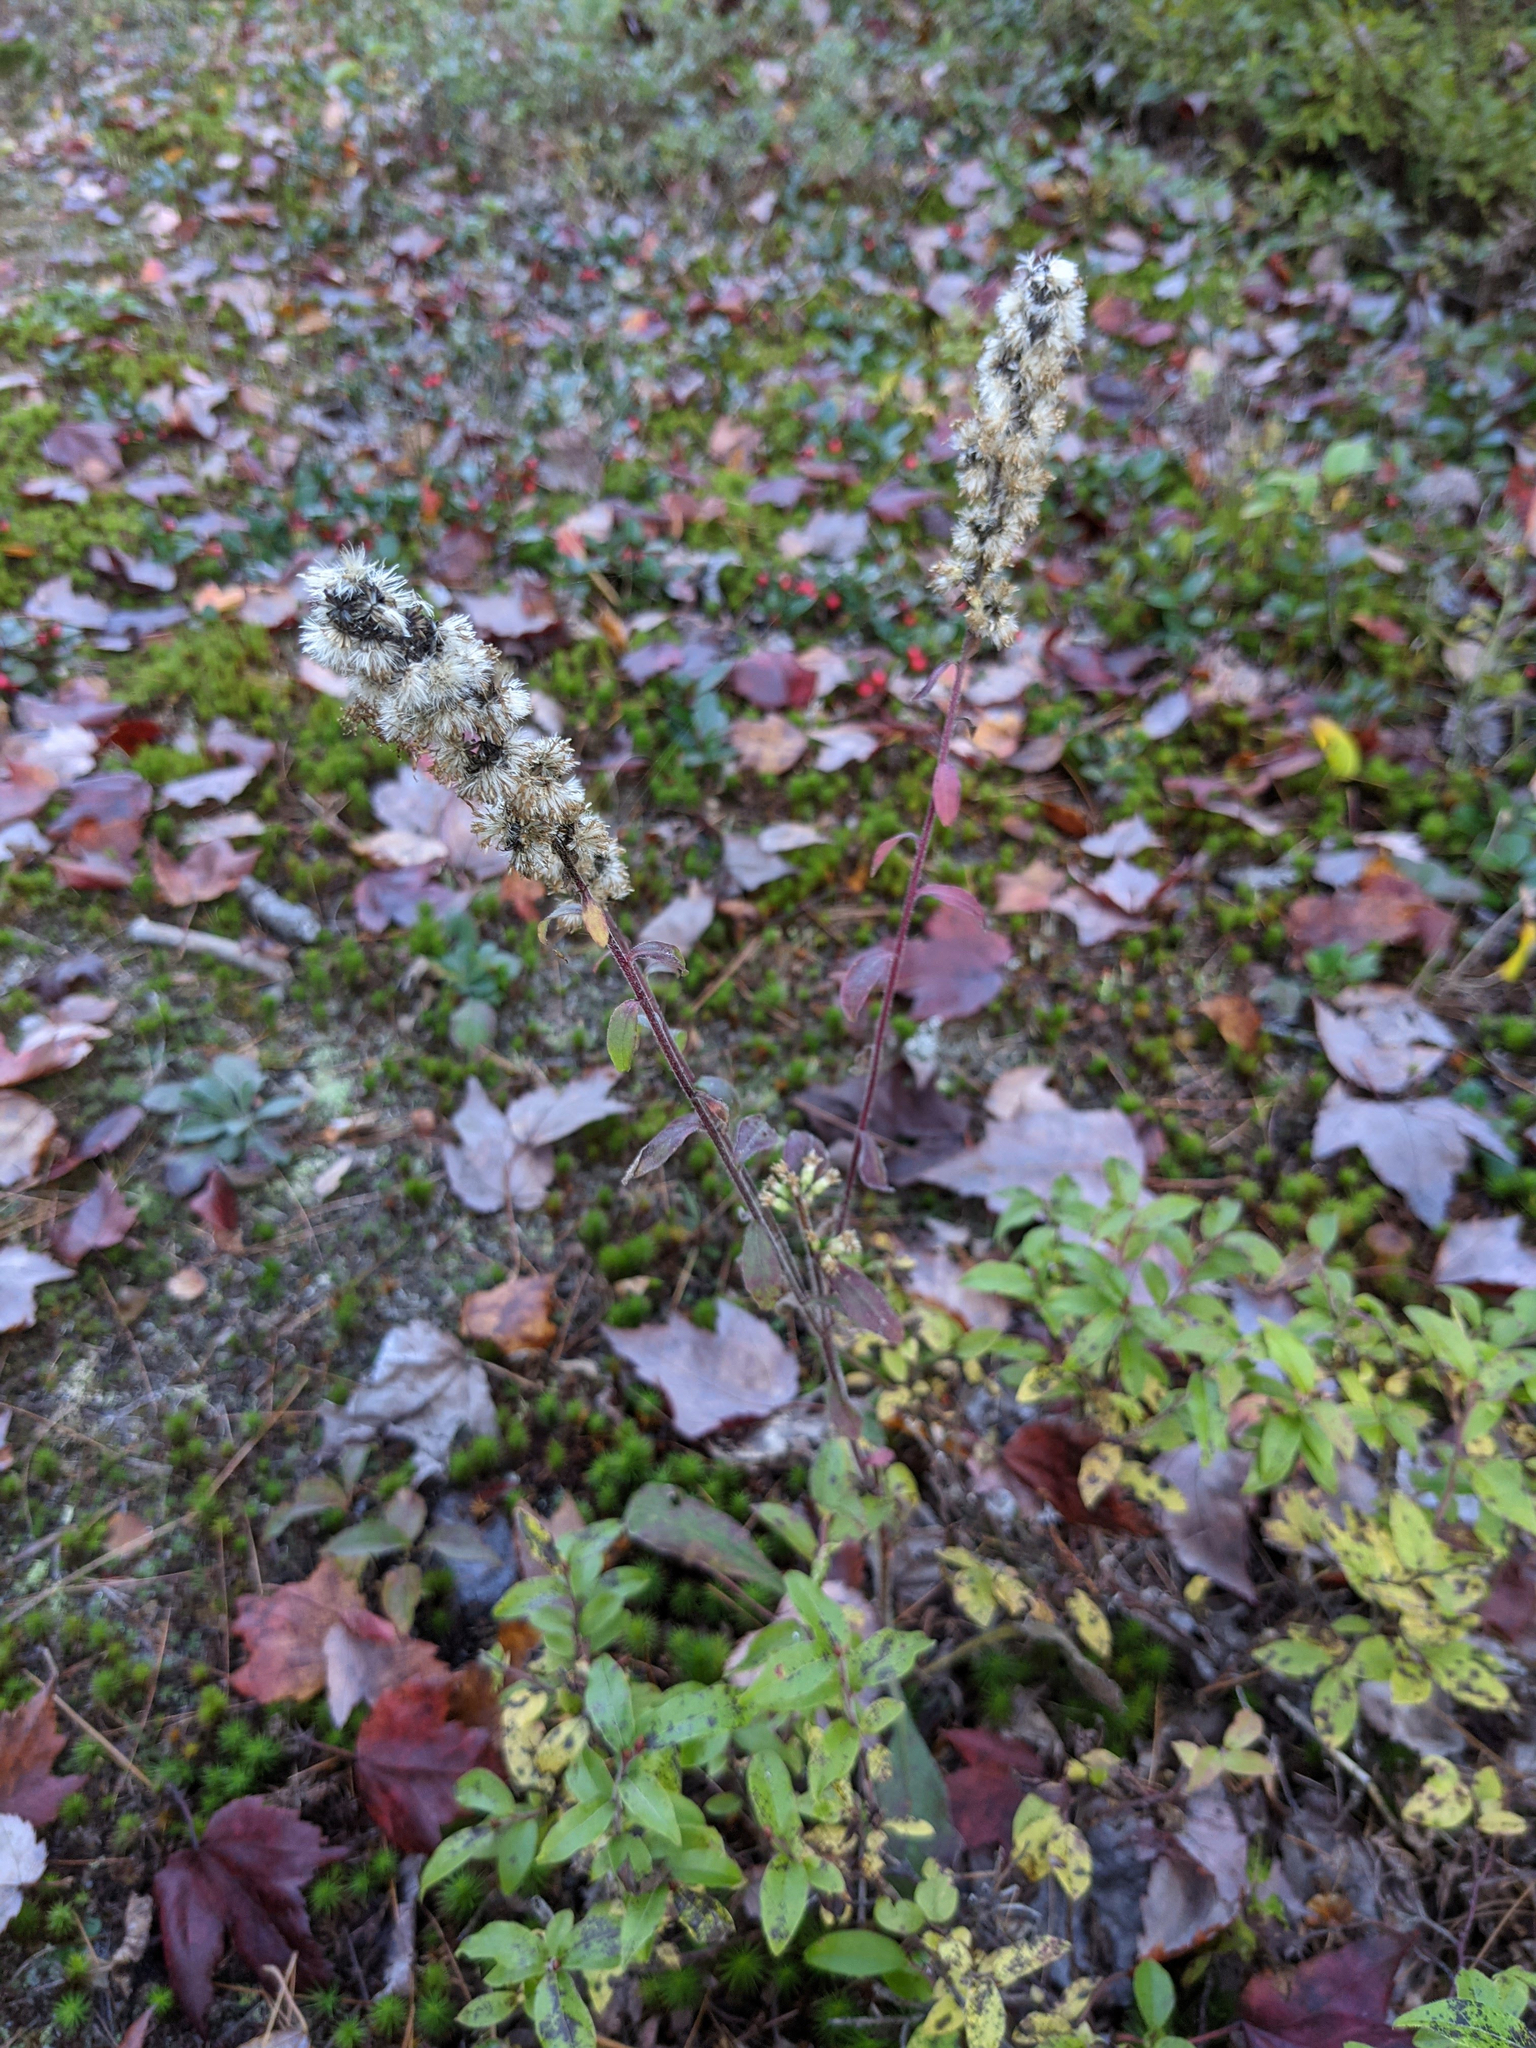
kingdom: Plantae
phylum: Tracheophyta
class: Magnoliopsida
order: Asterales
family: Asteraceae
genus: Solidago
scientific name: Solidago bicolor
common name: Silverrod
